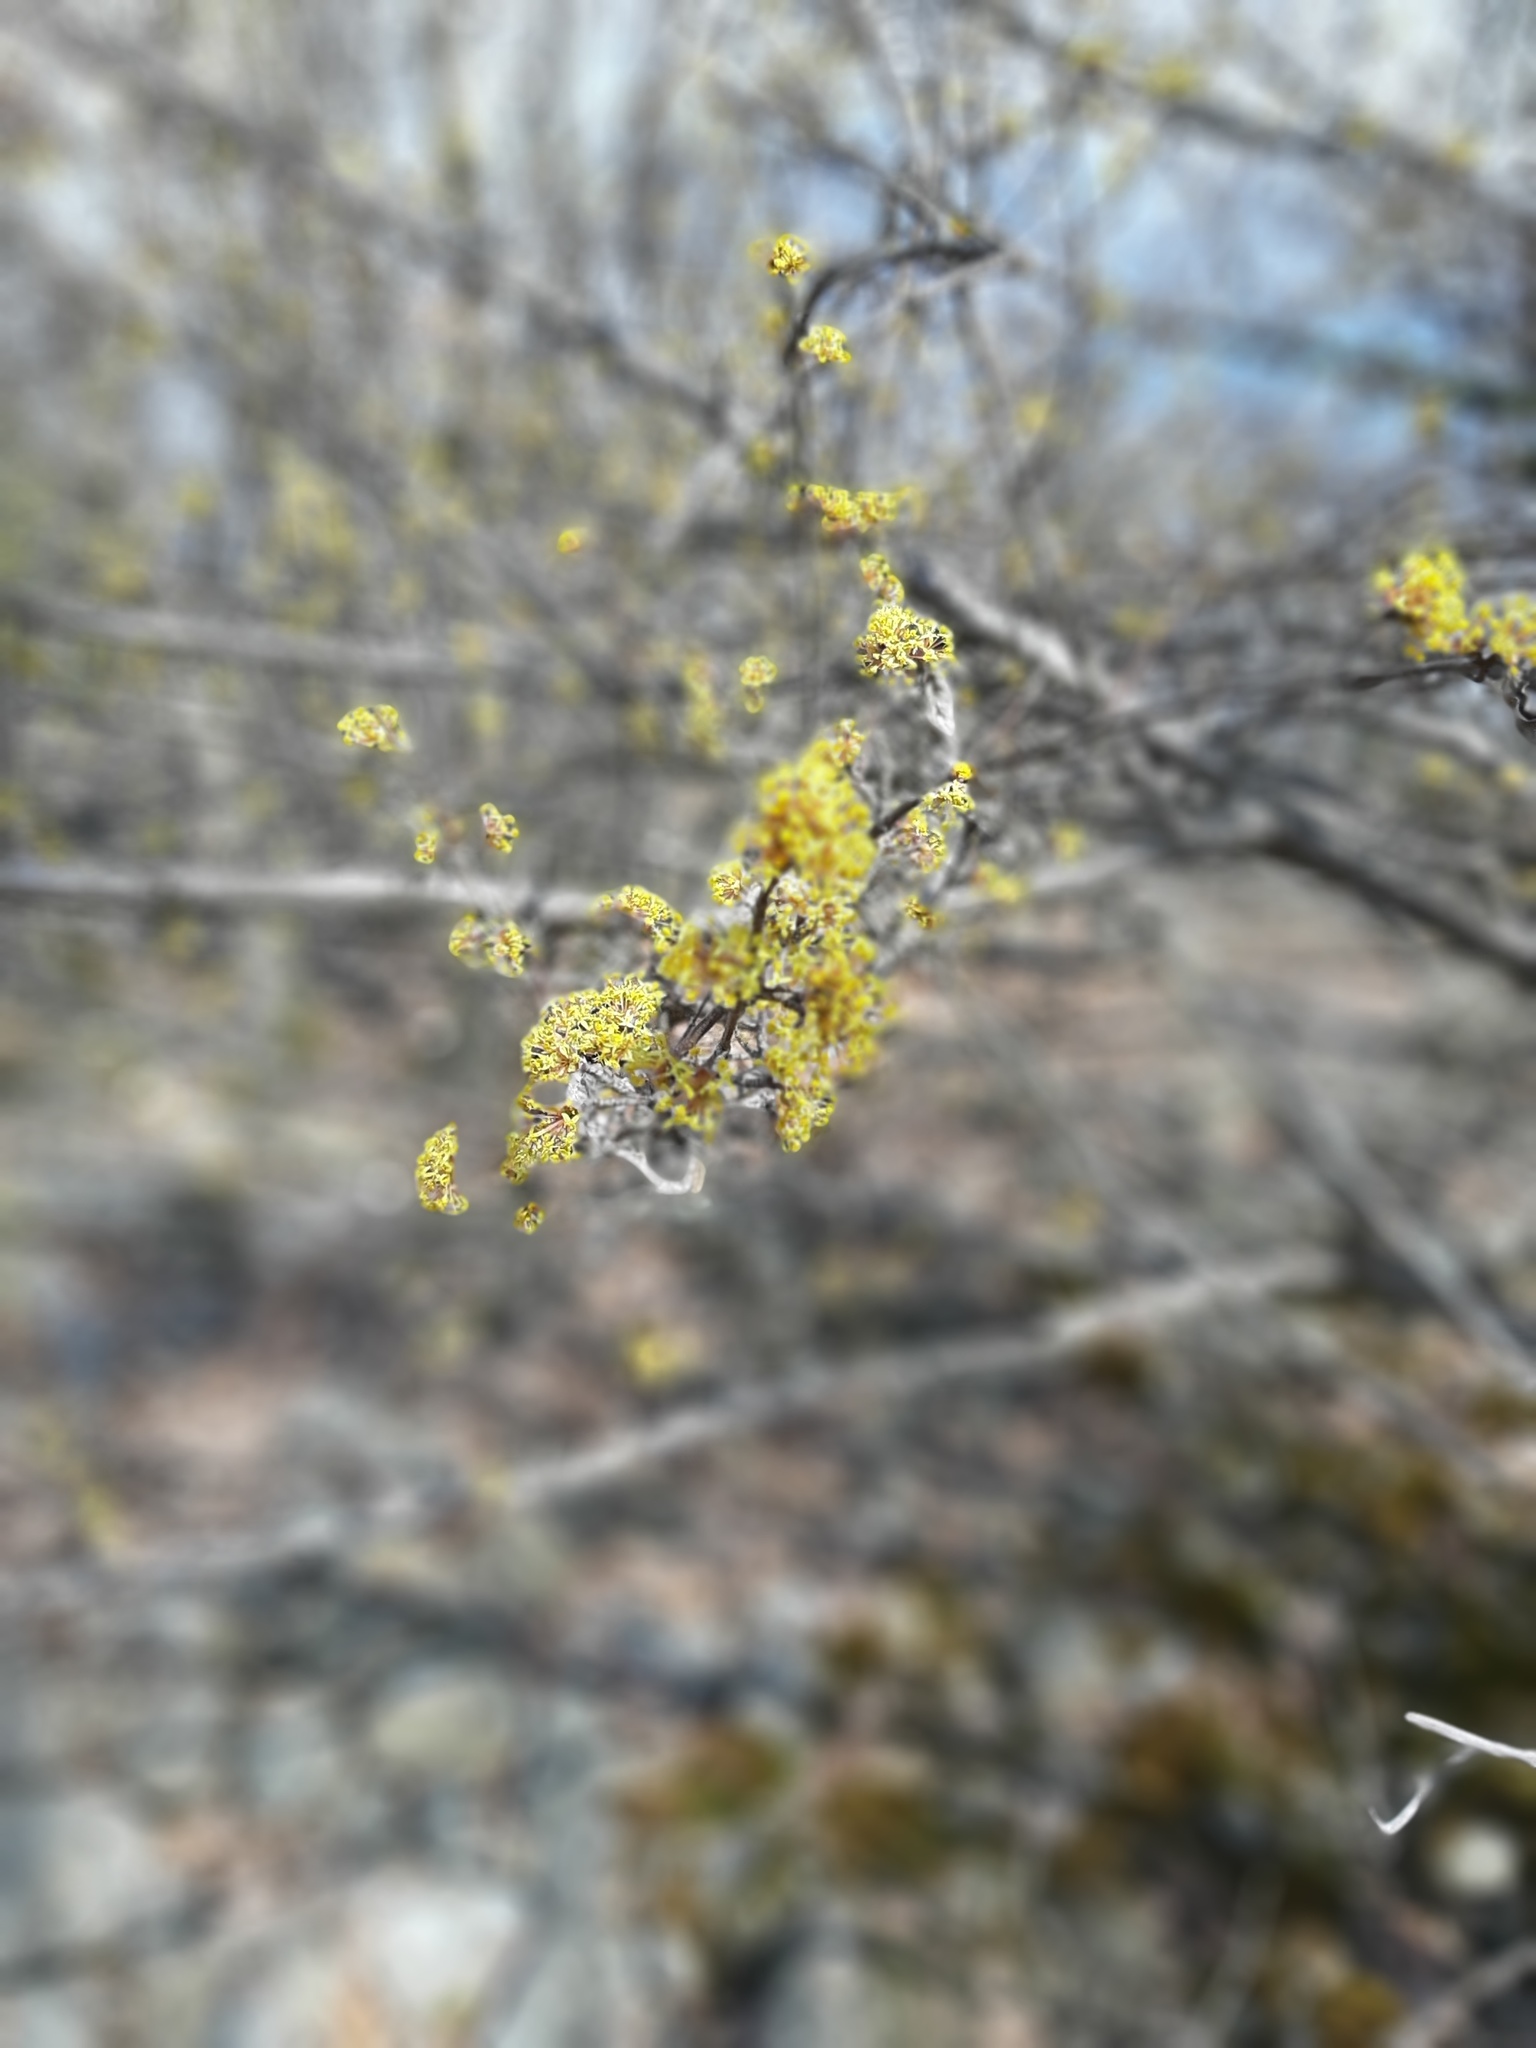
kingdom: Plantae
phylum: Tracheophyta
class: Magnoliopsida
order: Cornales
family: Cornaceae
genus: Cornus
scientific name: Cornus mas
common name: Cornelian-cherry
